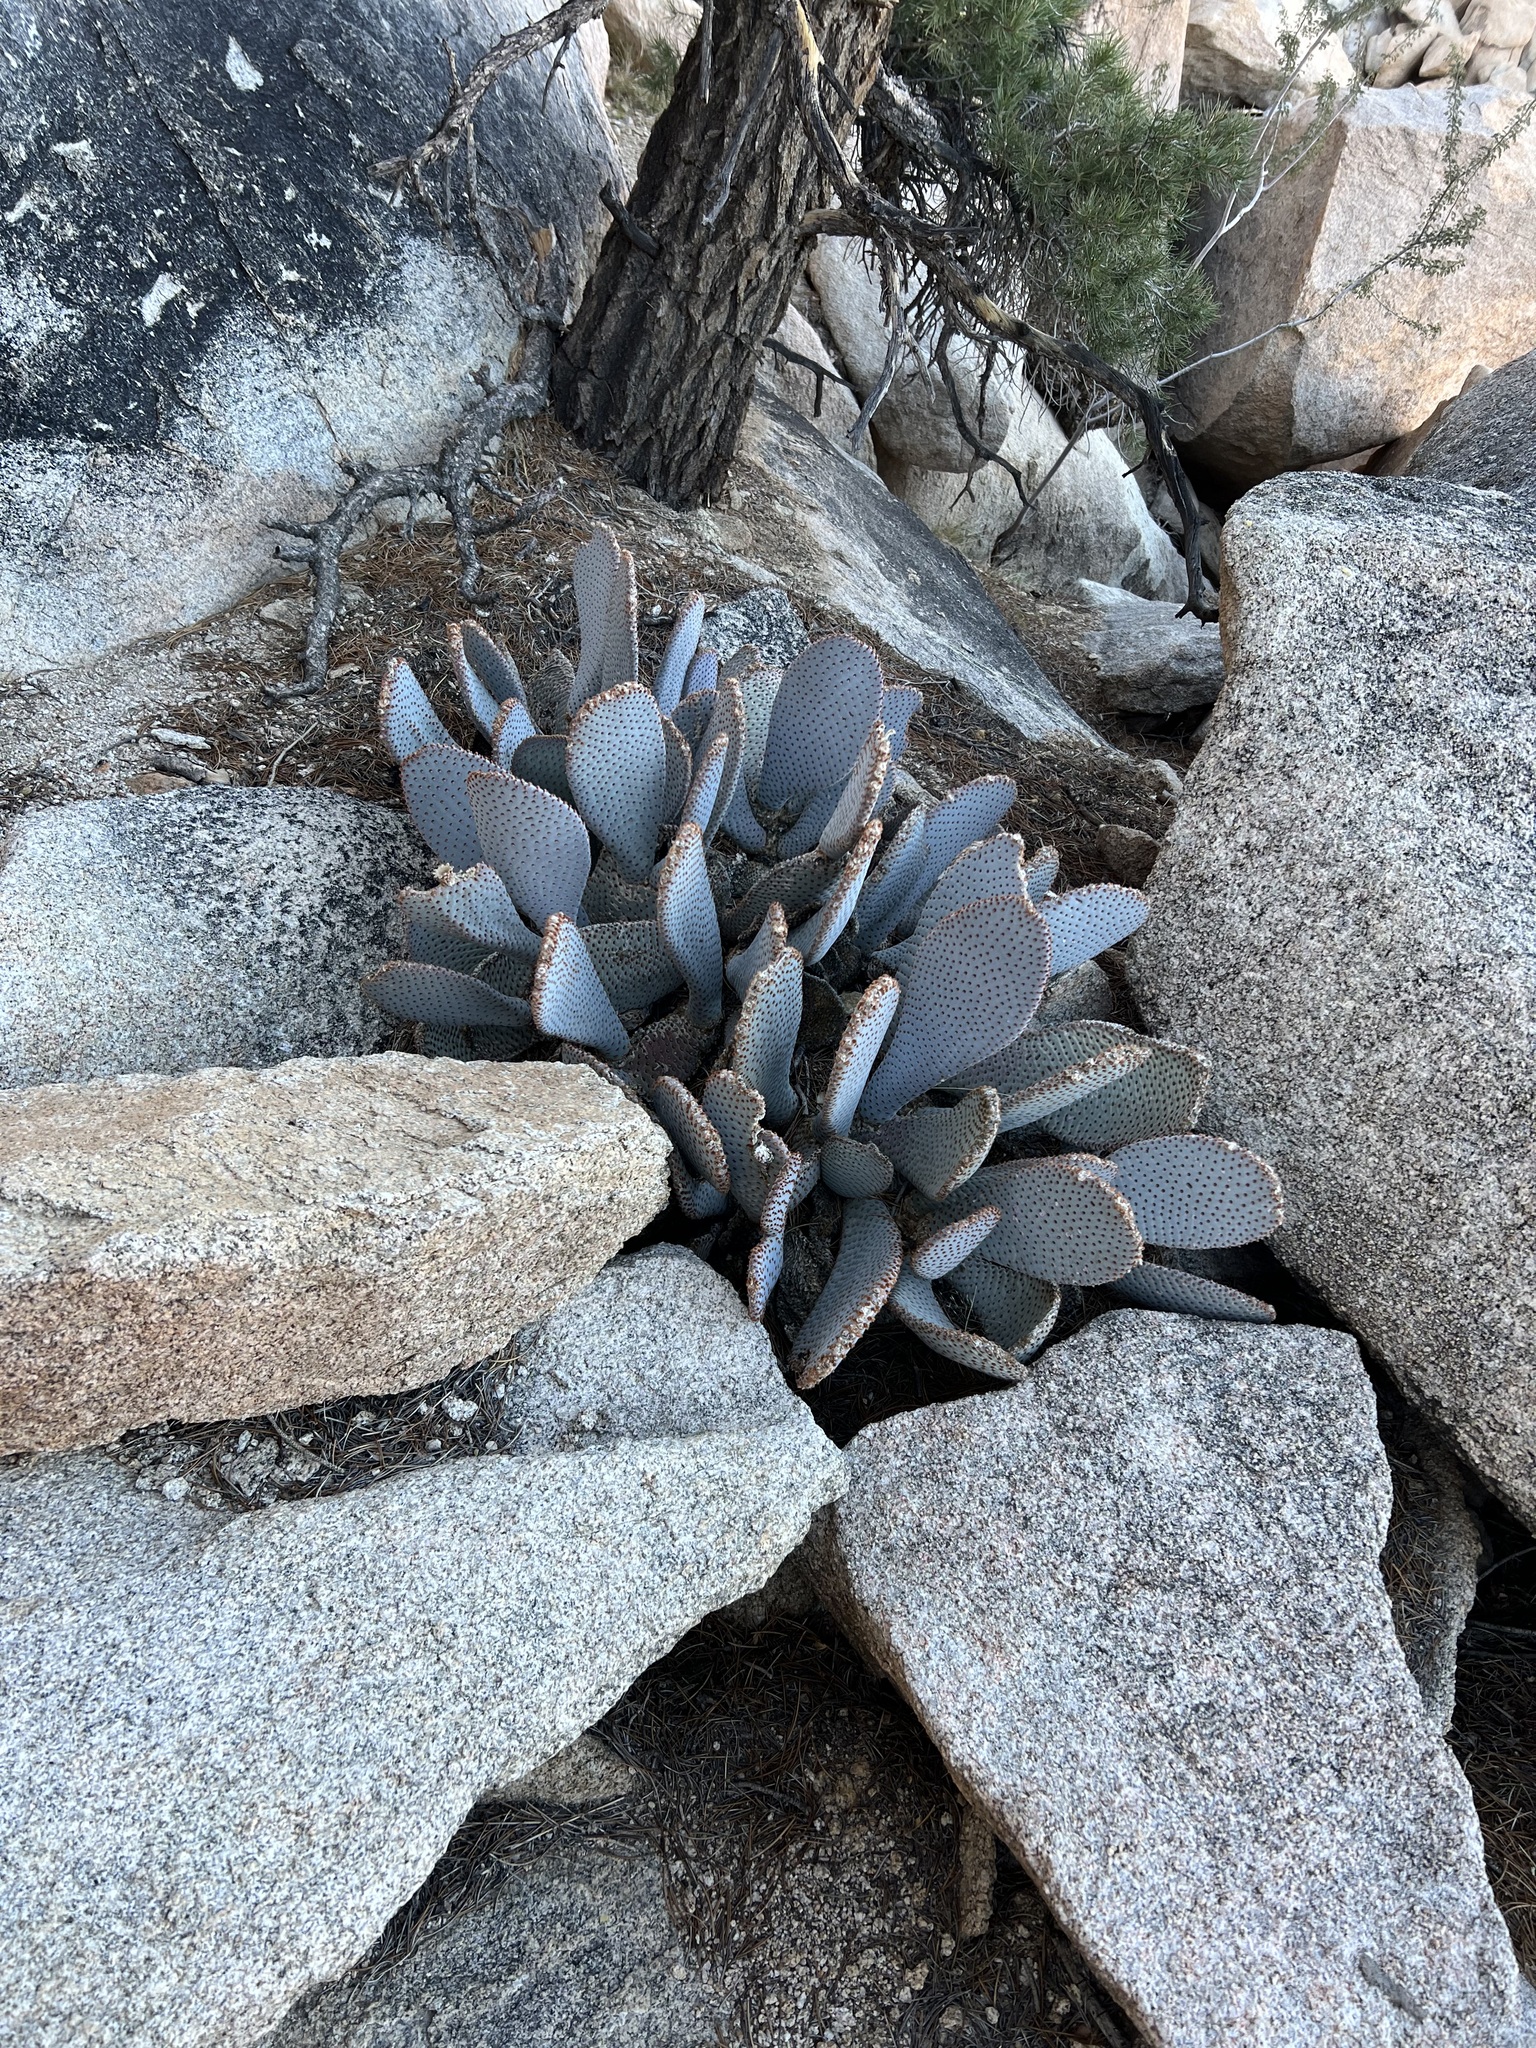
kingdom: Plantae
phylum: Tracheophyta
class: Magnoliopsida
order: Caryophyllales
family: Cactaceae
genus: Opuntia
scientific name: Opuntia basilaris
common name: Beavertail prickly-pear
